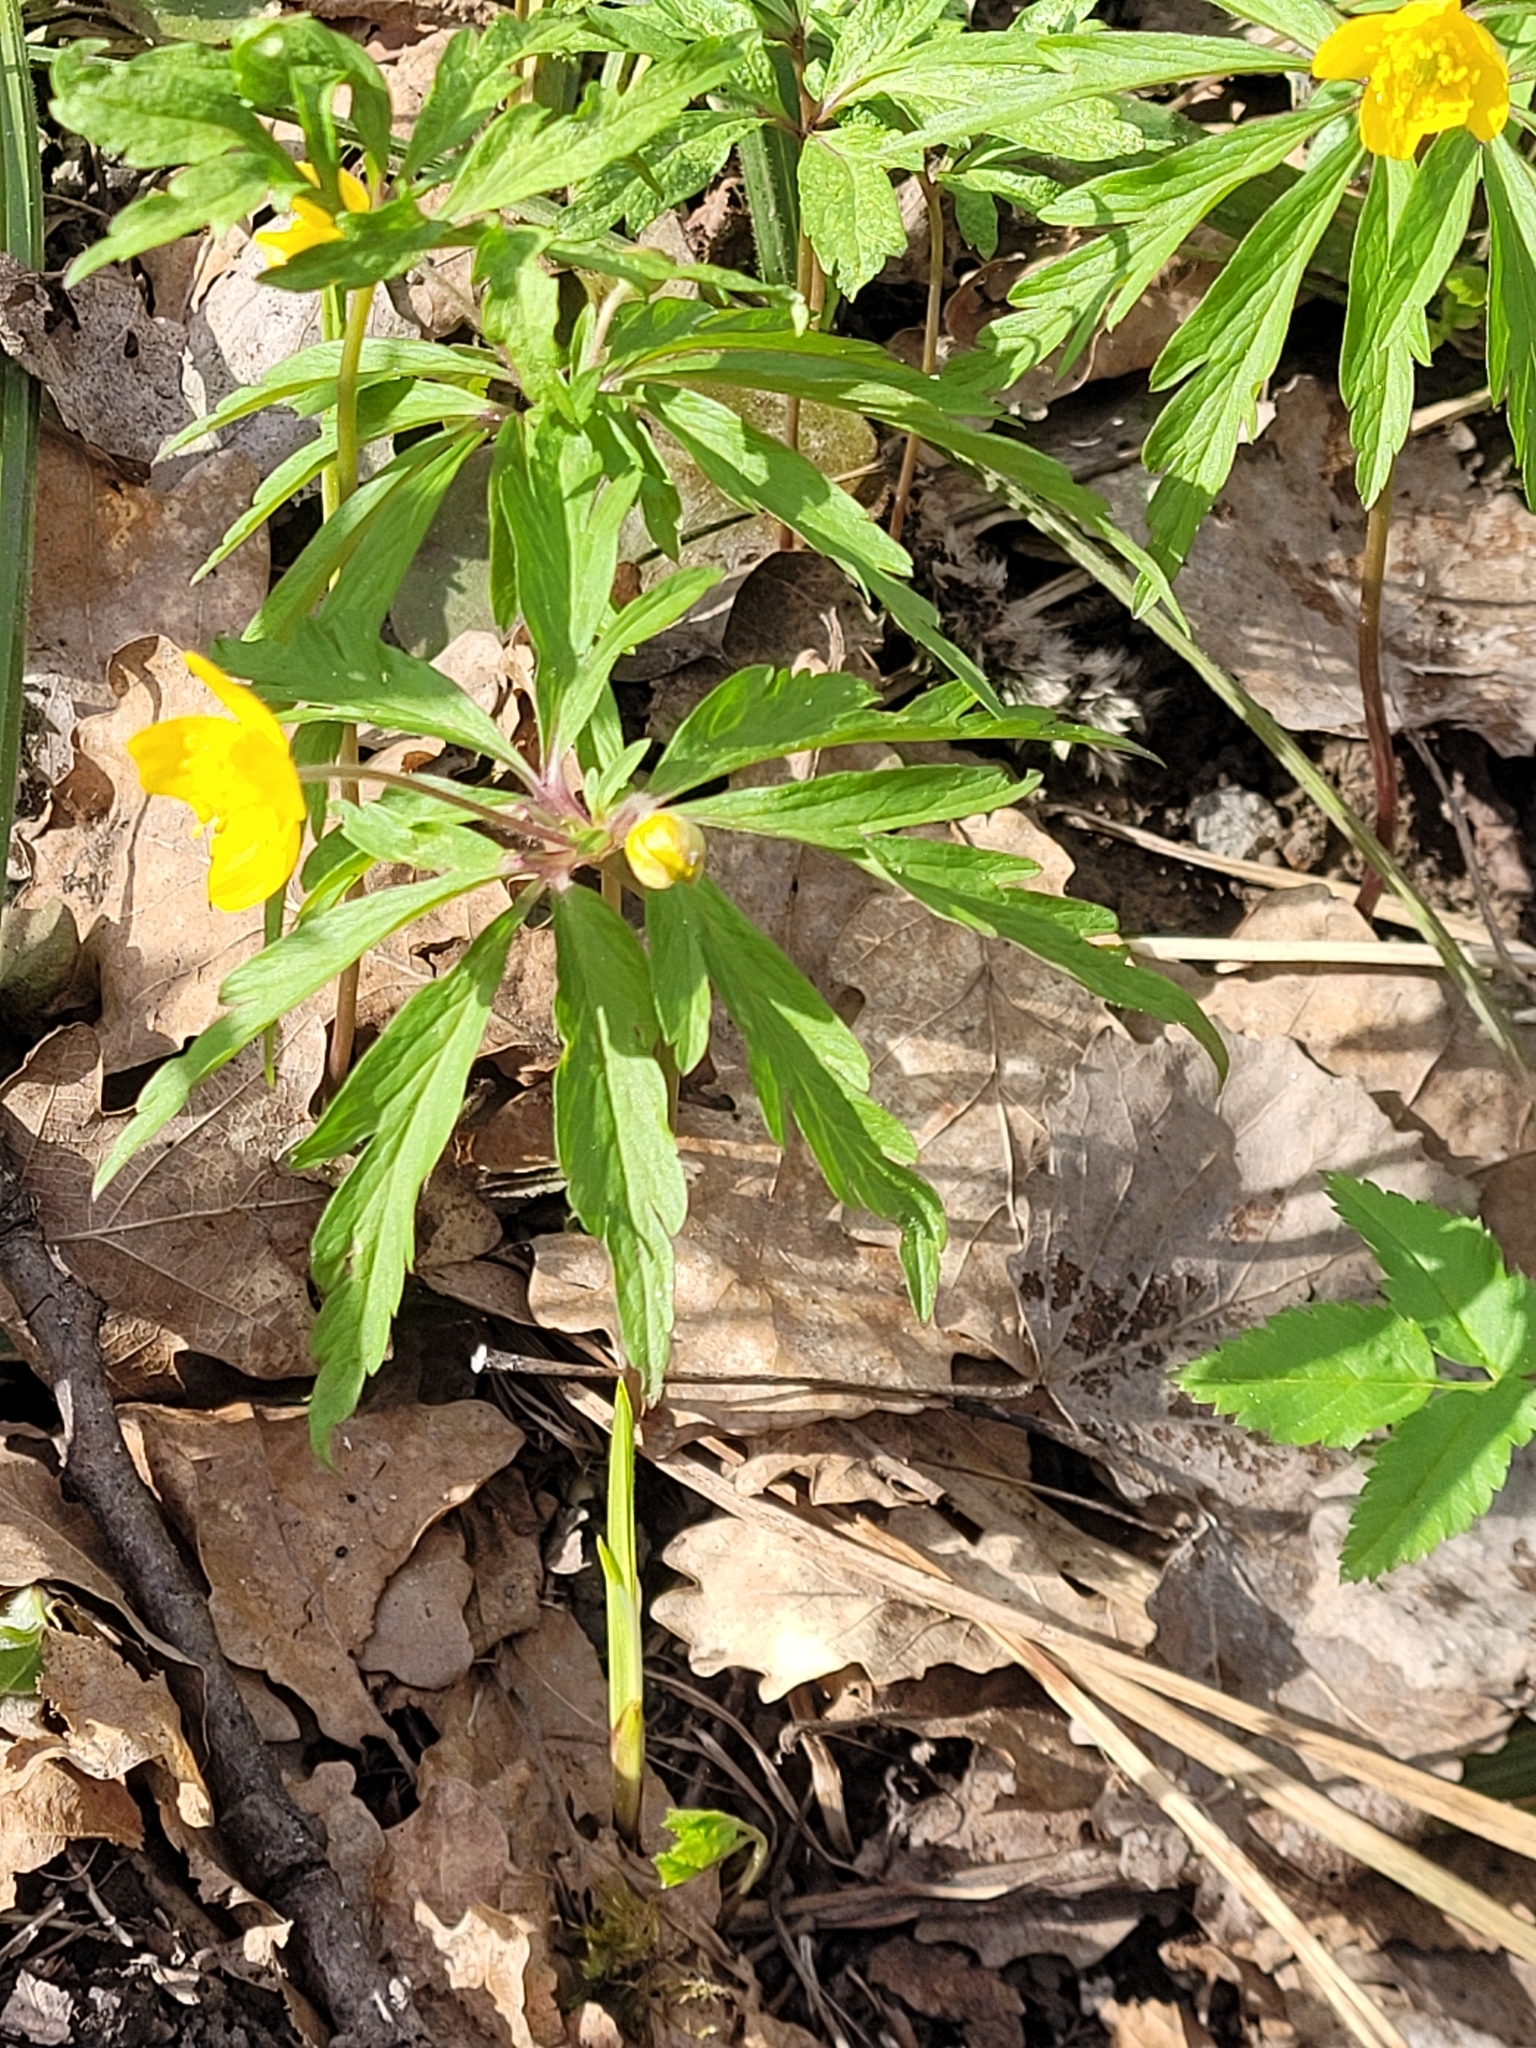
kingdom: Plantae
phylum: Tracheophyta
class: Magnoliopsida
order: Ranunculales
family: Ranunculaceae
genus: Anemone
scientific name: Anemone ranunculoides
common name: Yellow anemone
